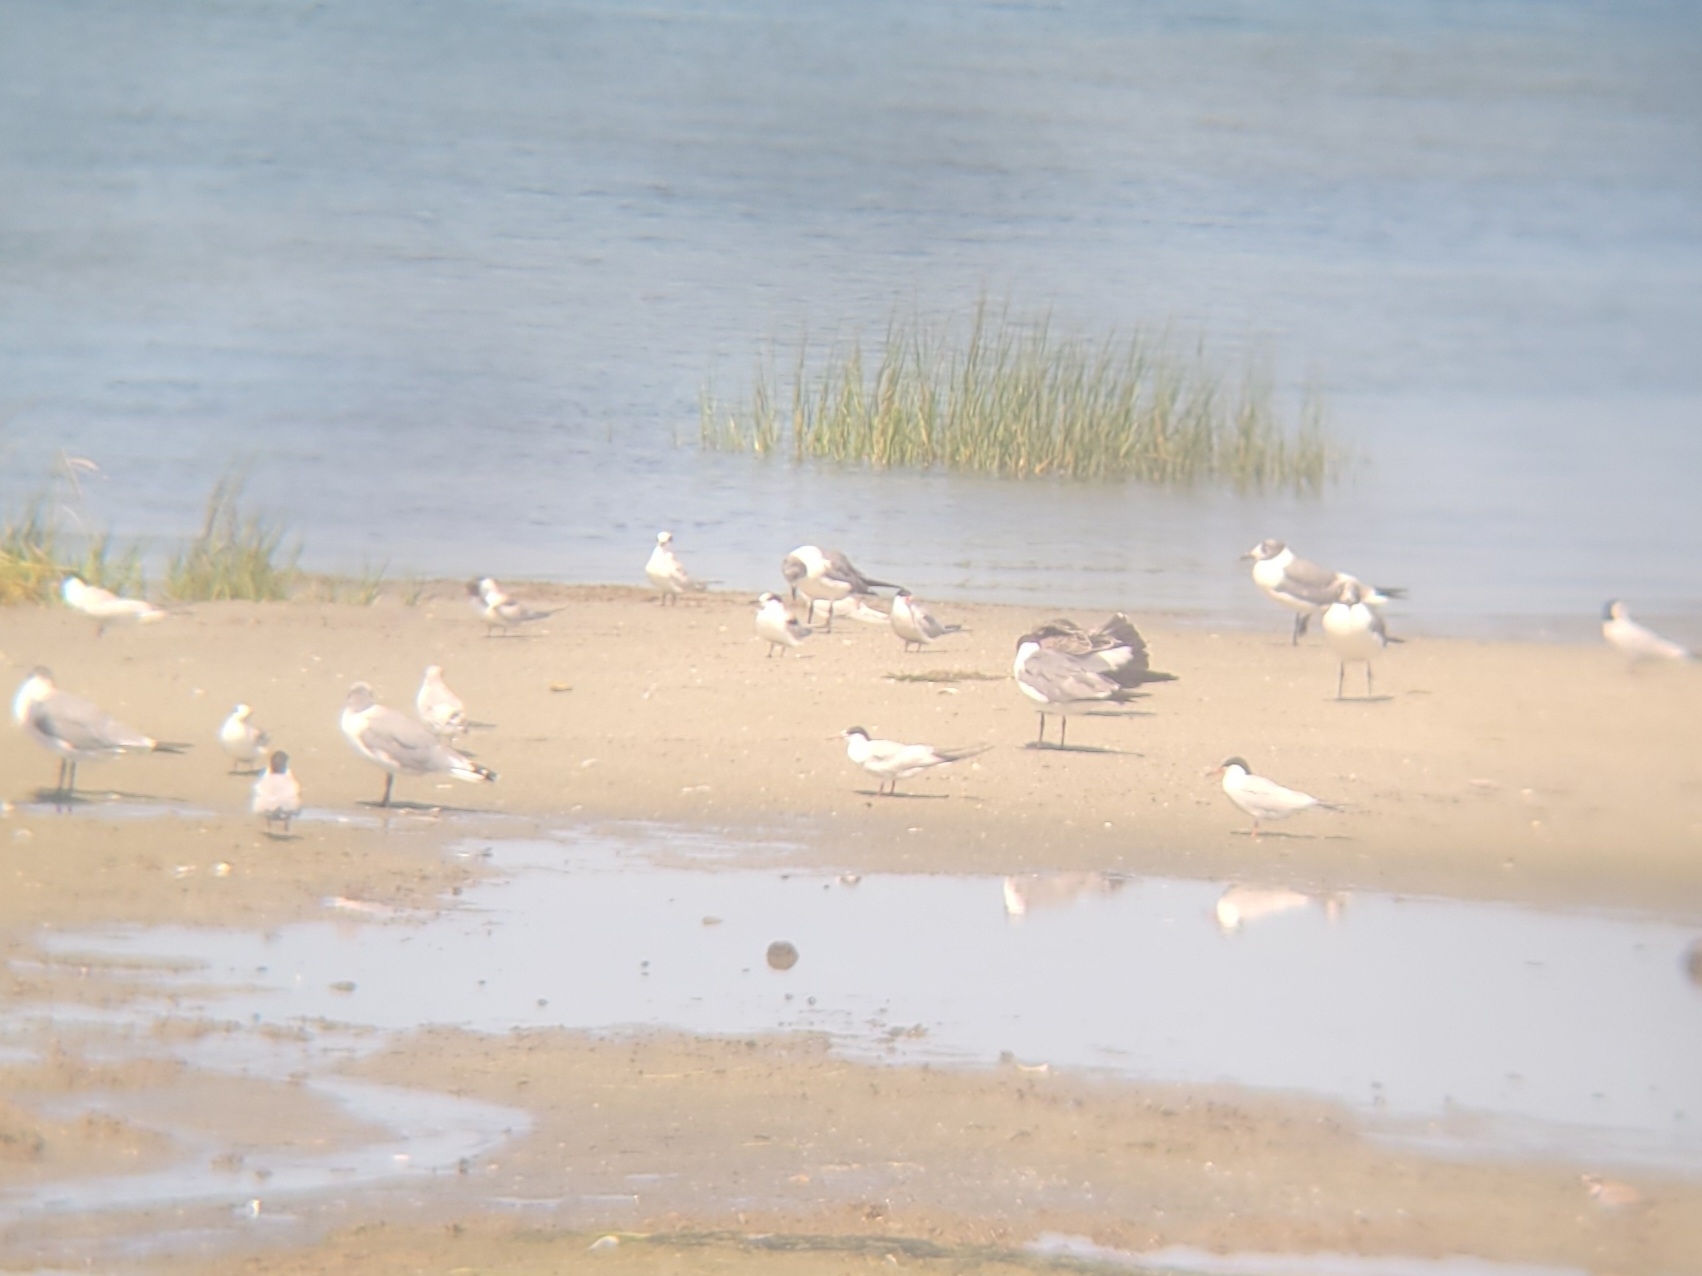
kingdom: Animalia
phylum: Chordata
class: Aves
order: Charadriiformes
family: Laridae
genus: Leucophaeus
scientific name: Leucophaeus atricilla
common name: Laughing gull
